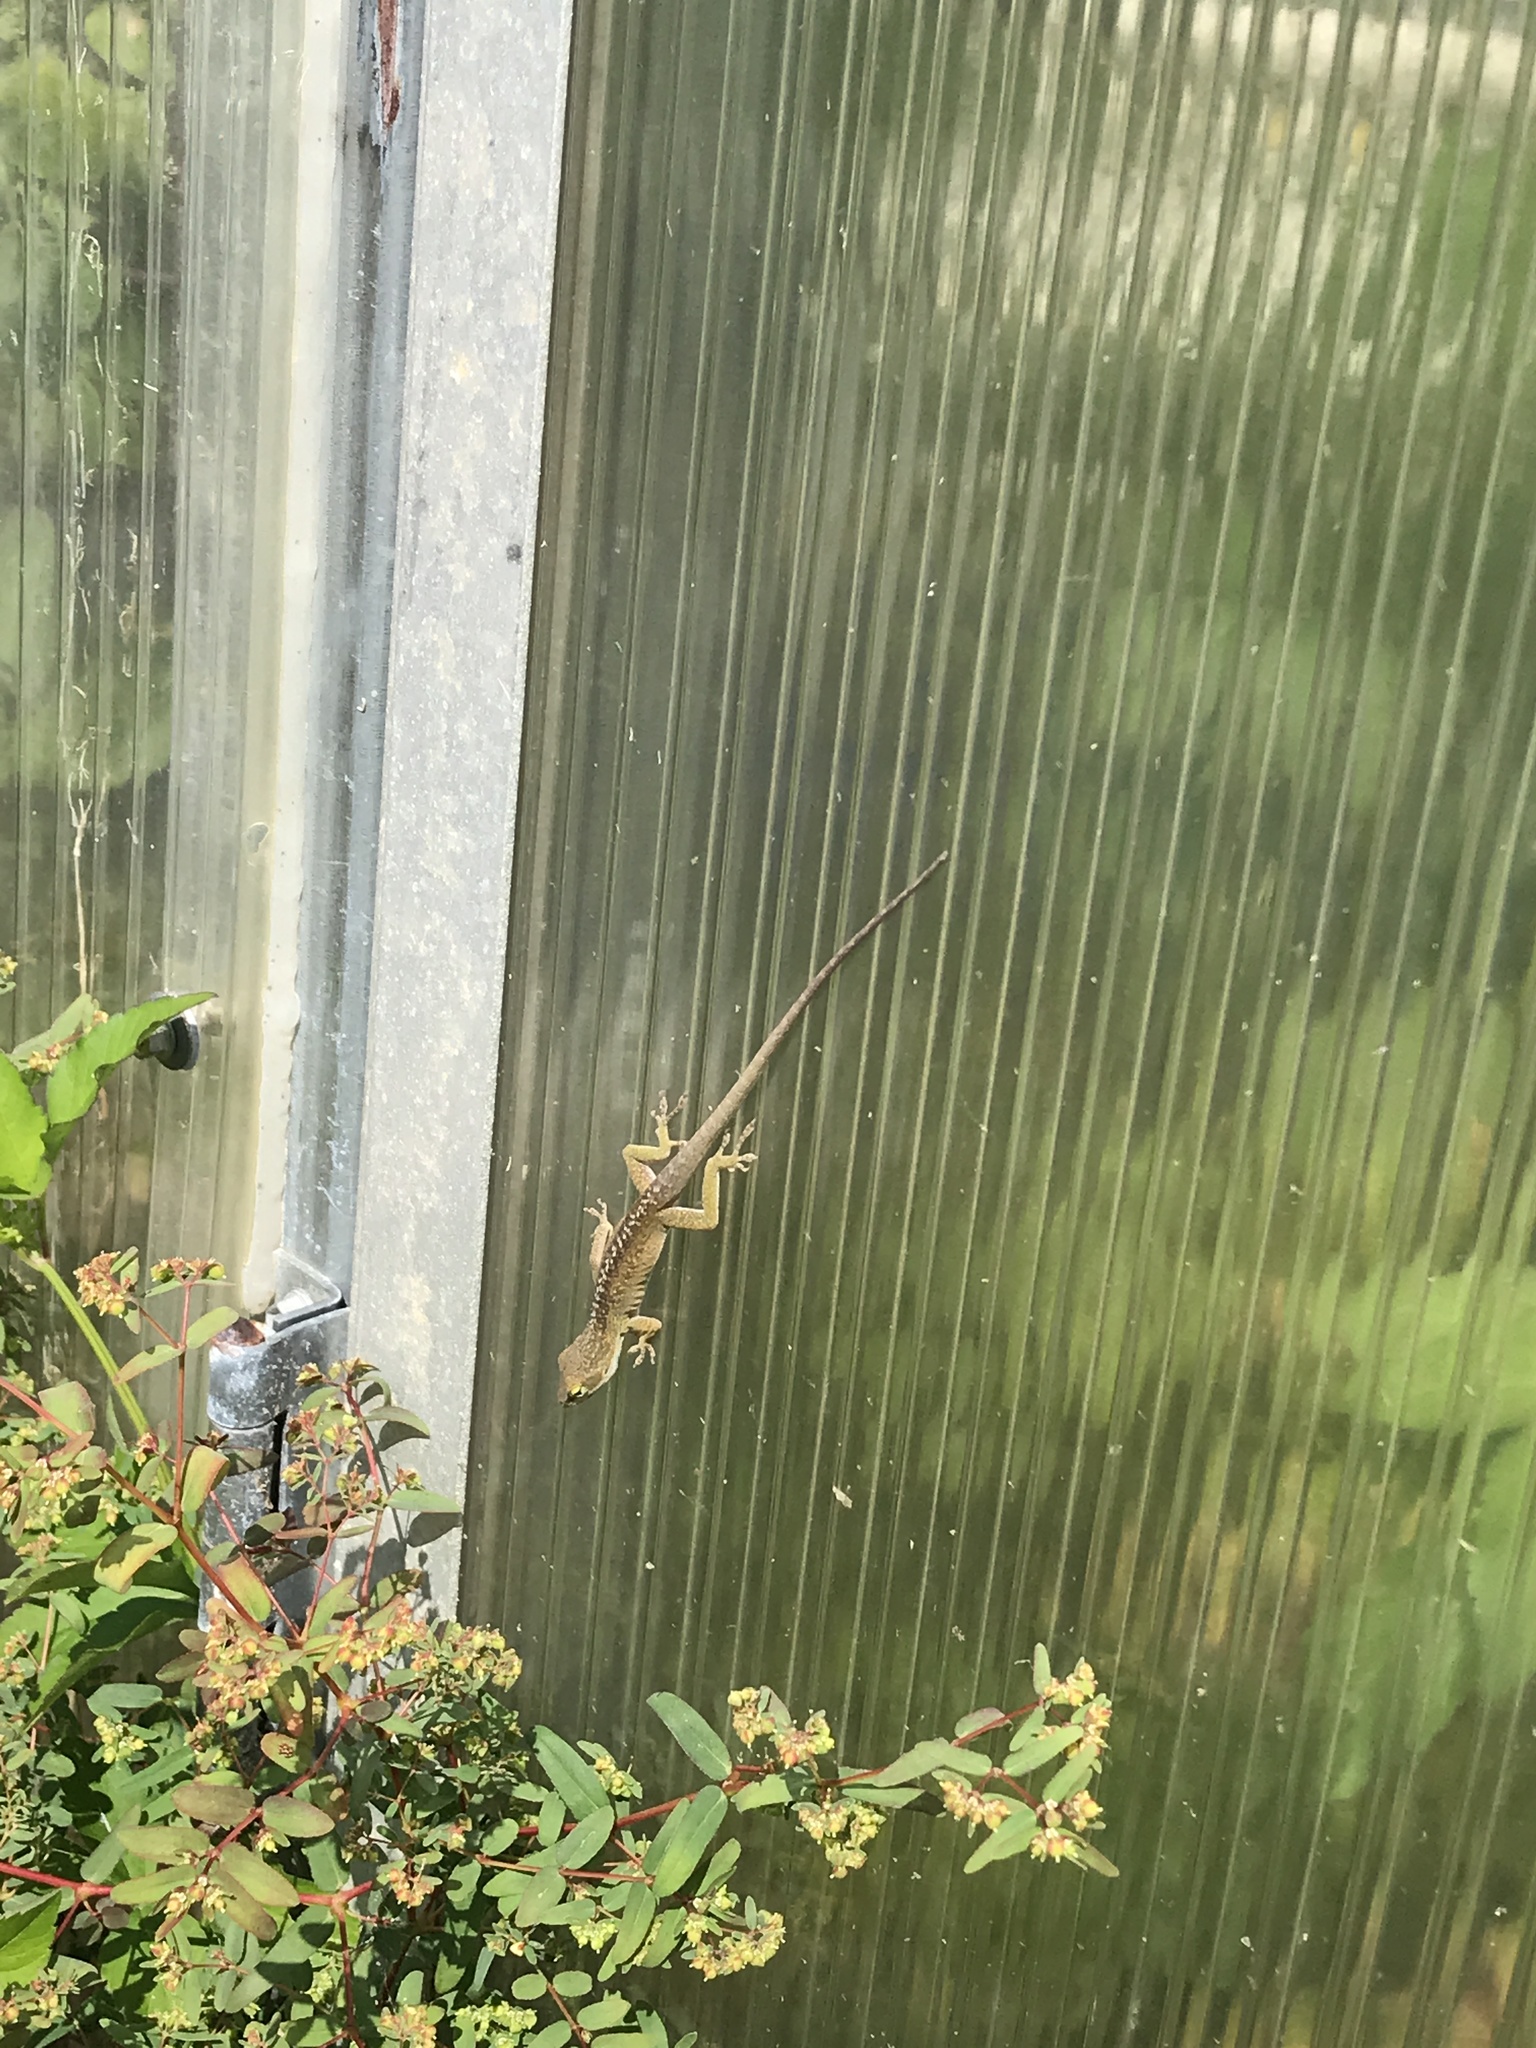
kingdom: Animalia
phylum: Chordata
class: Squamata
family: Dactyloidae
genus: Anolis
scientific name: Anolis carolinensis
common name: Green anole
